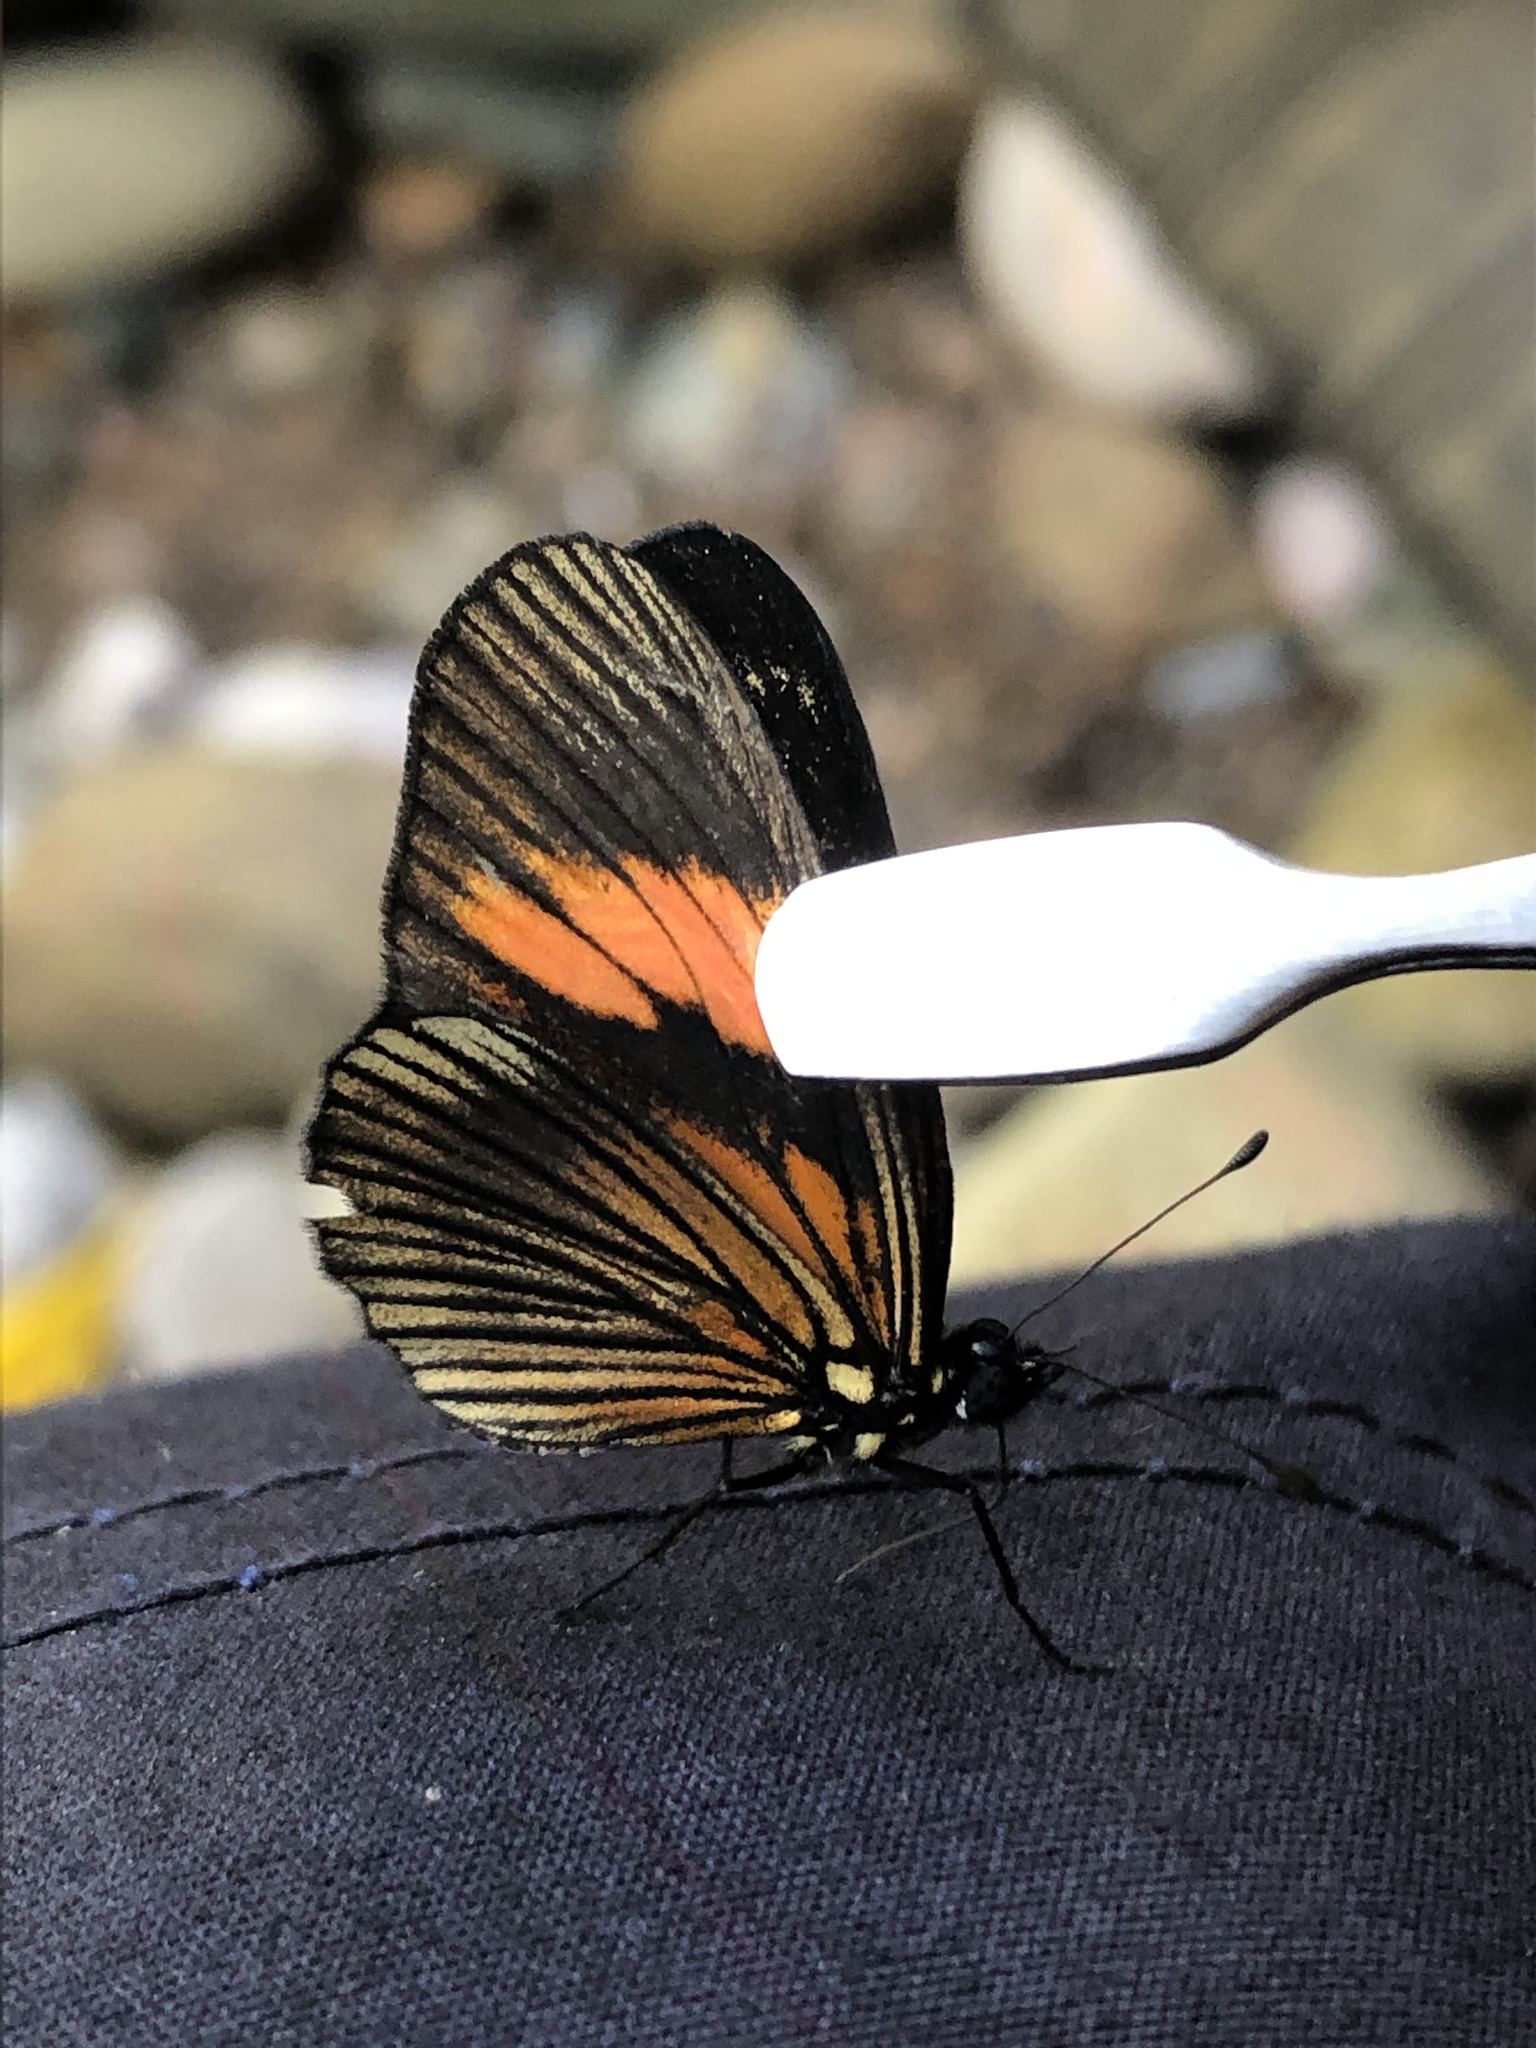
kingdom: Animalia
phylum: Arthropoda
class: Insecta
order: Lepidoptera
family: Nymphalidae
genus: Castilia
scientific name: Castilia perilla
